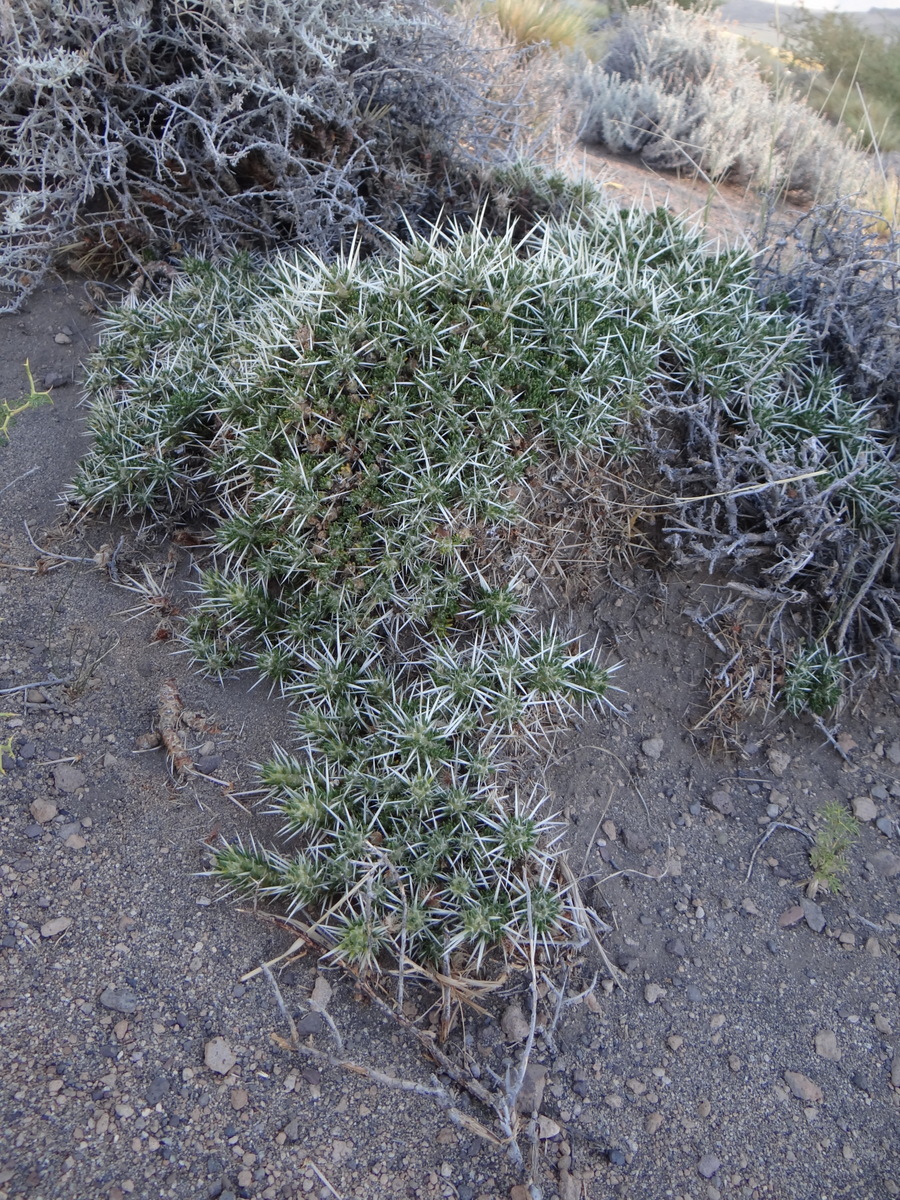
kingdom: Plantae
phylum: Tracheophyta
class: Magnoliopsida
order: Caryophyllales
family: Cactaceae
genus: Maihuenia
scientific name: Maihuenia patagonica
